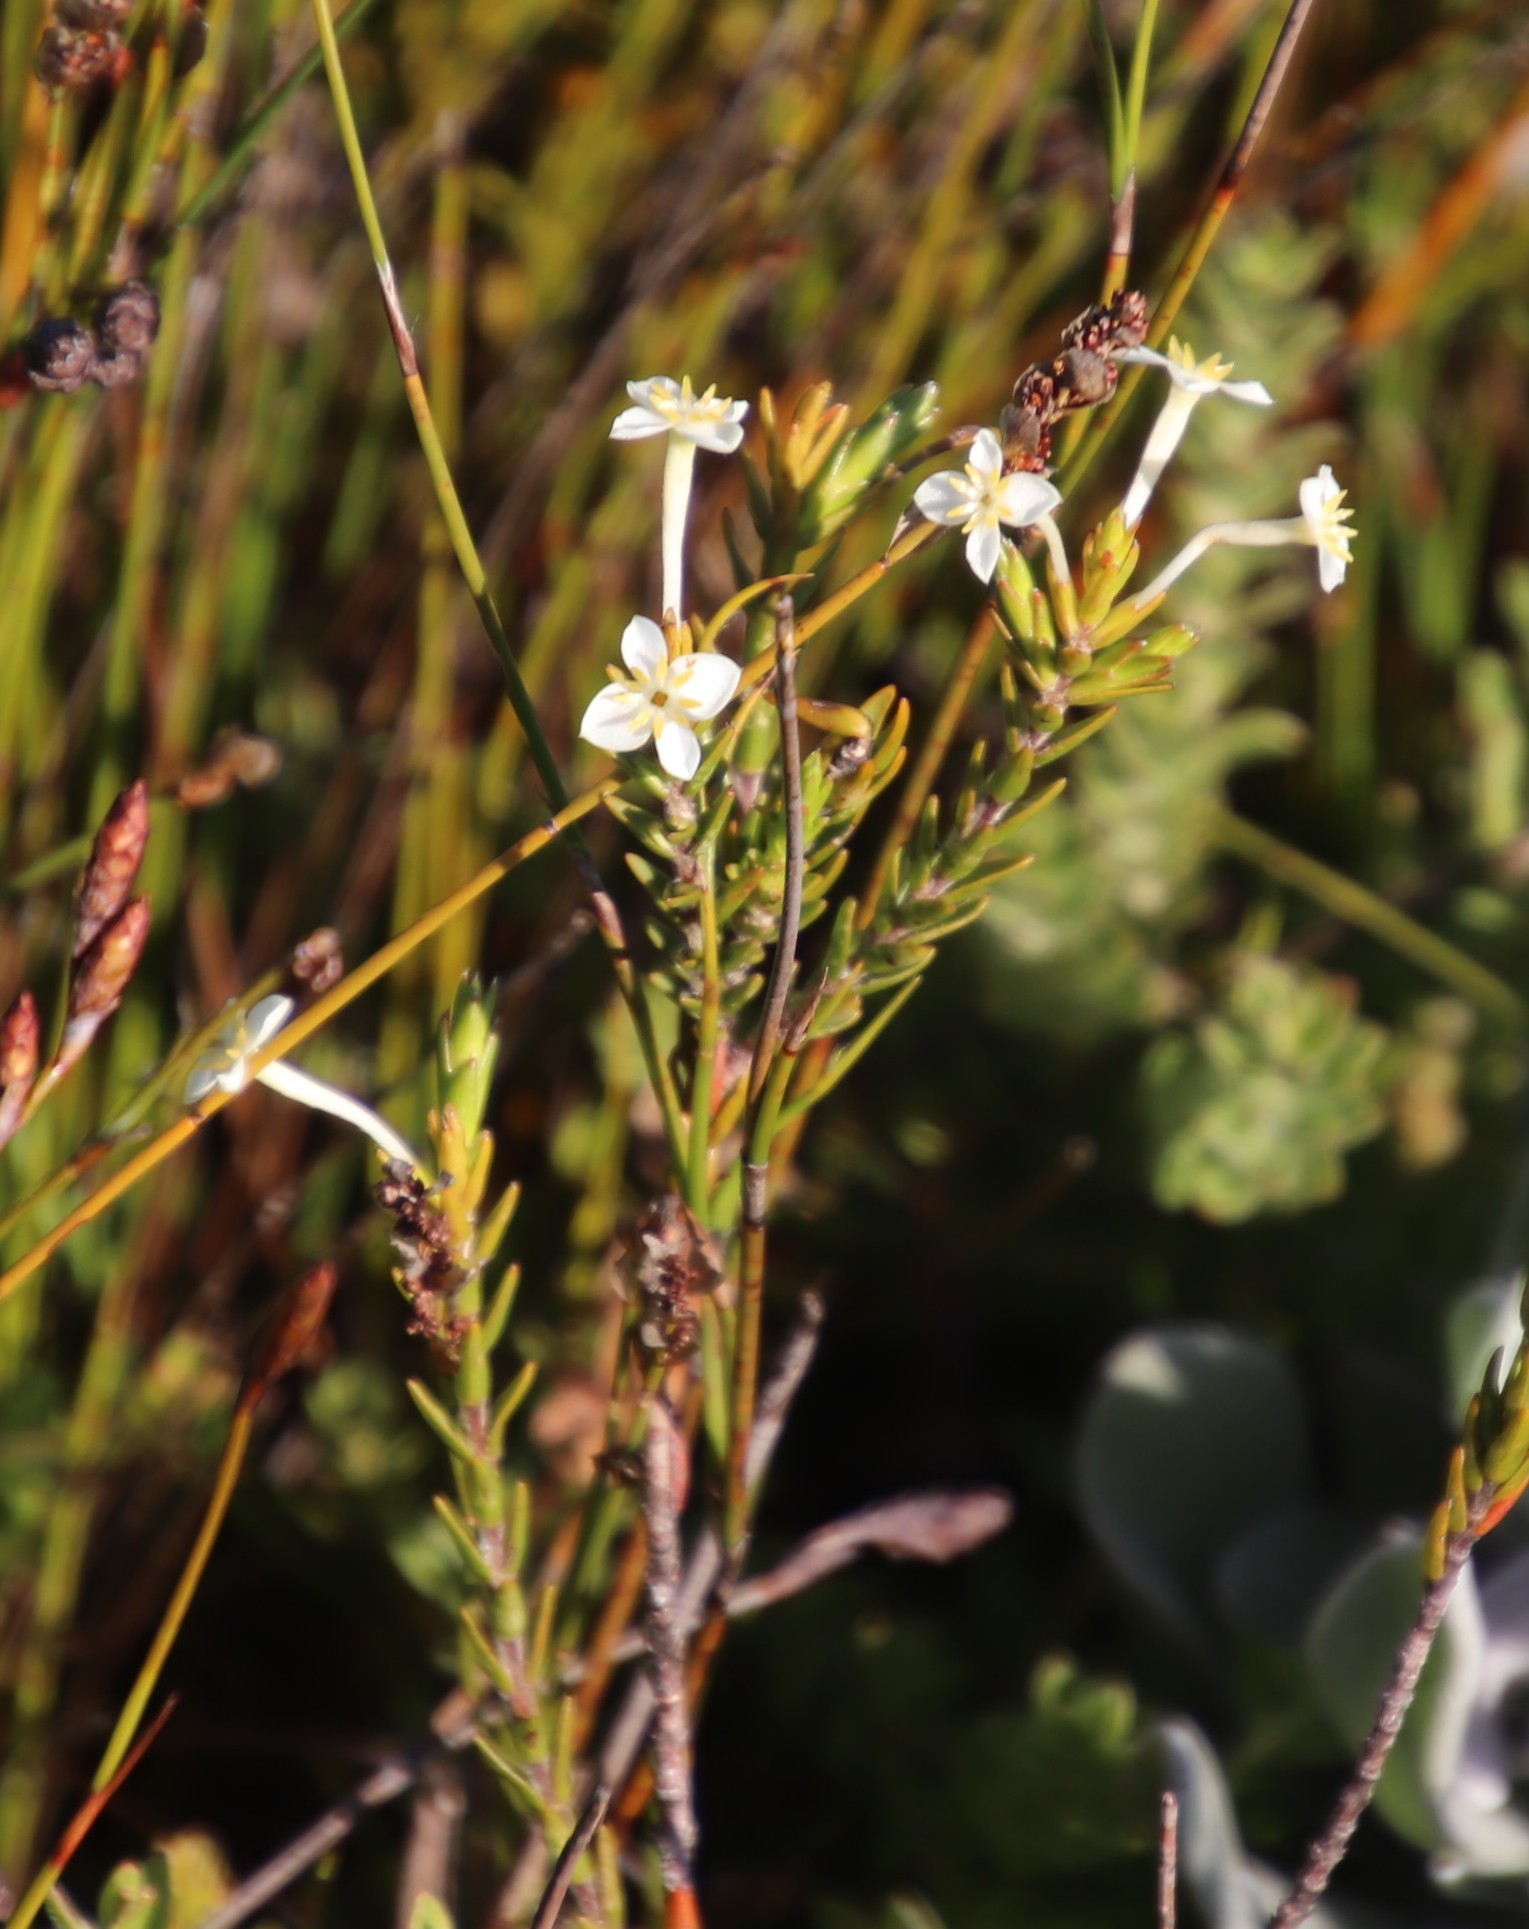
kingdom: Plantae
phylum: Tracheophyta
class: Magnoliopsida
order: Malvales
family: Thymelaeaceae
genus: Struthiola
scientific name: Struthiola ciliata
